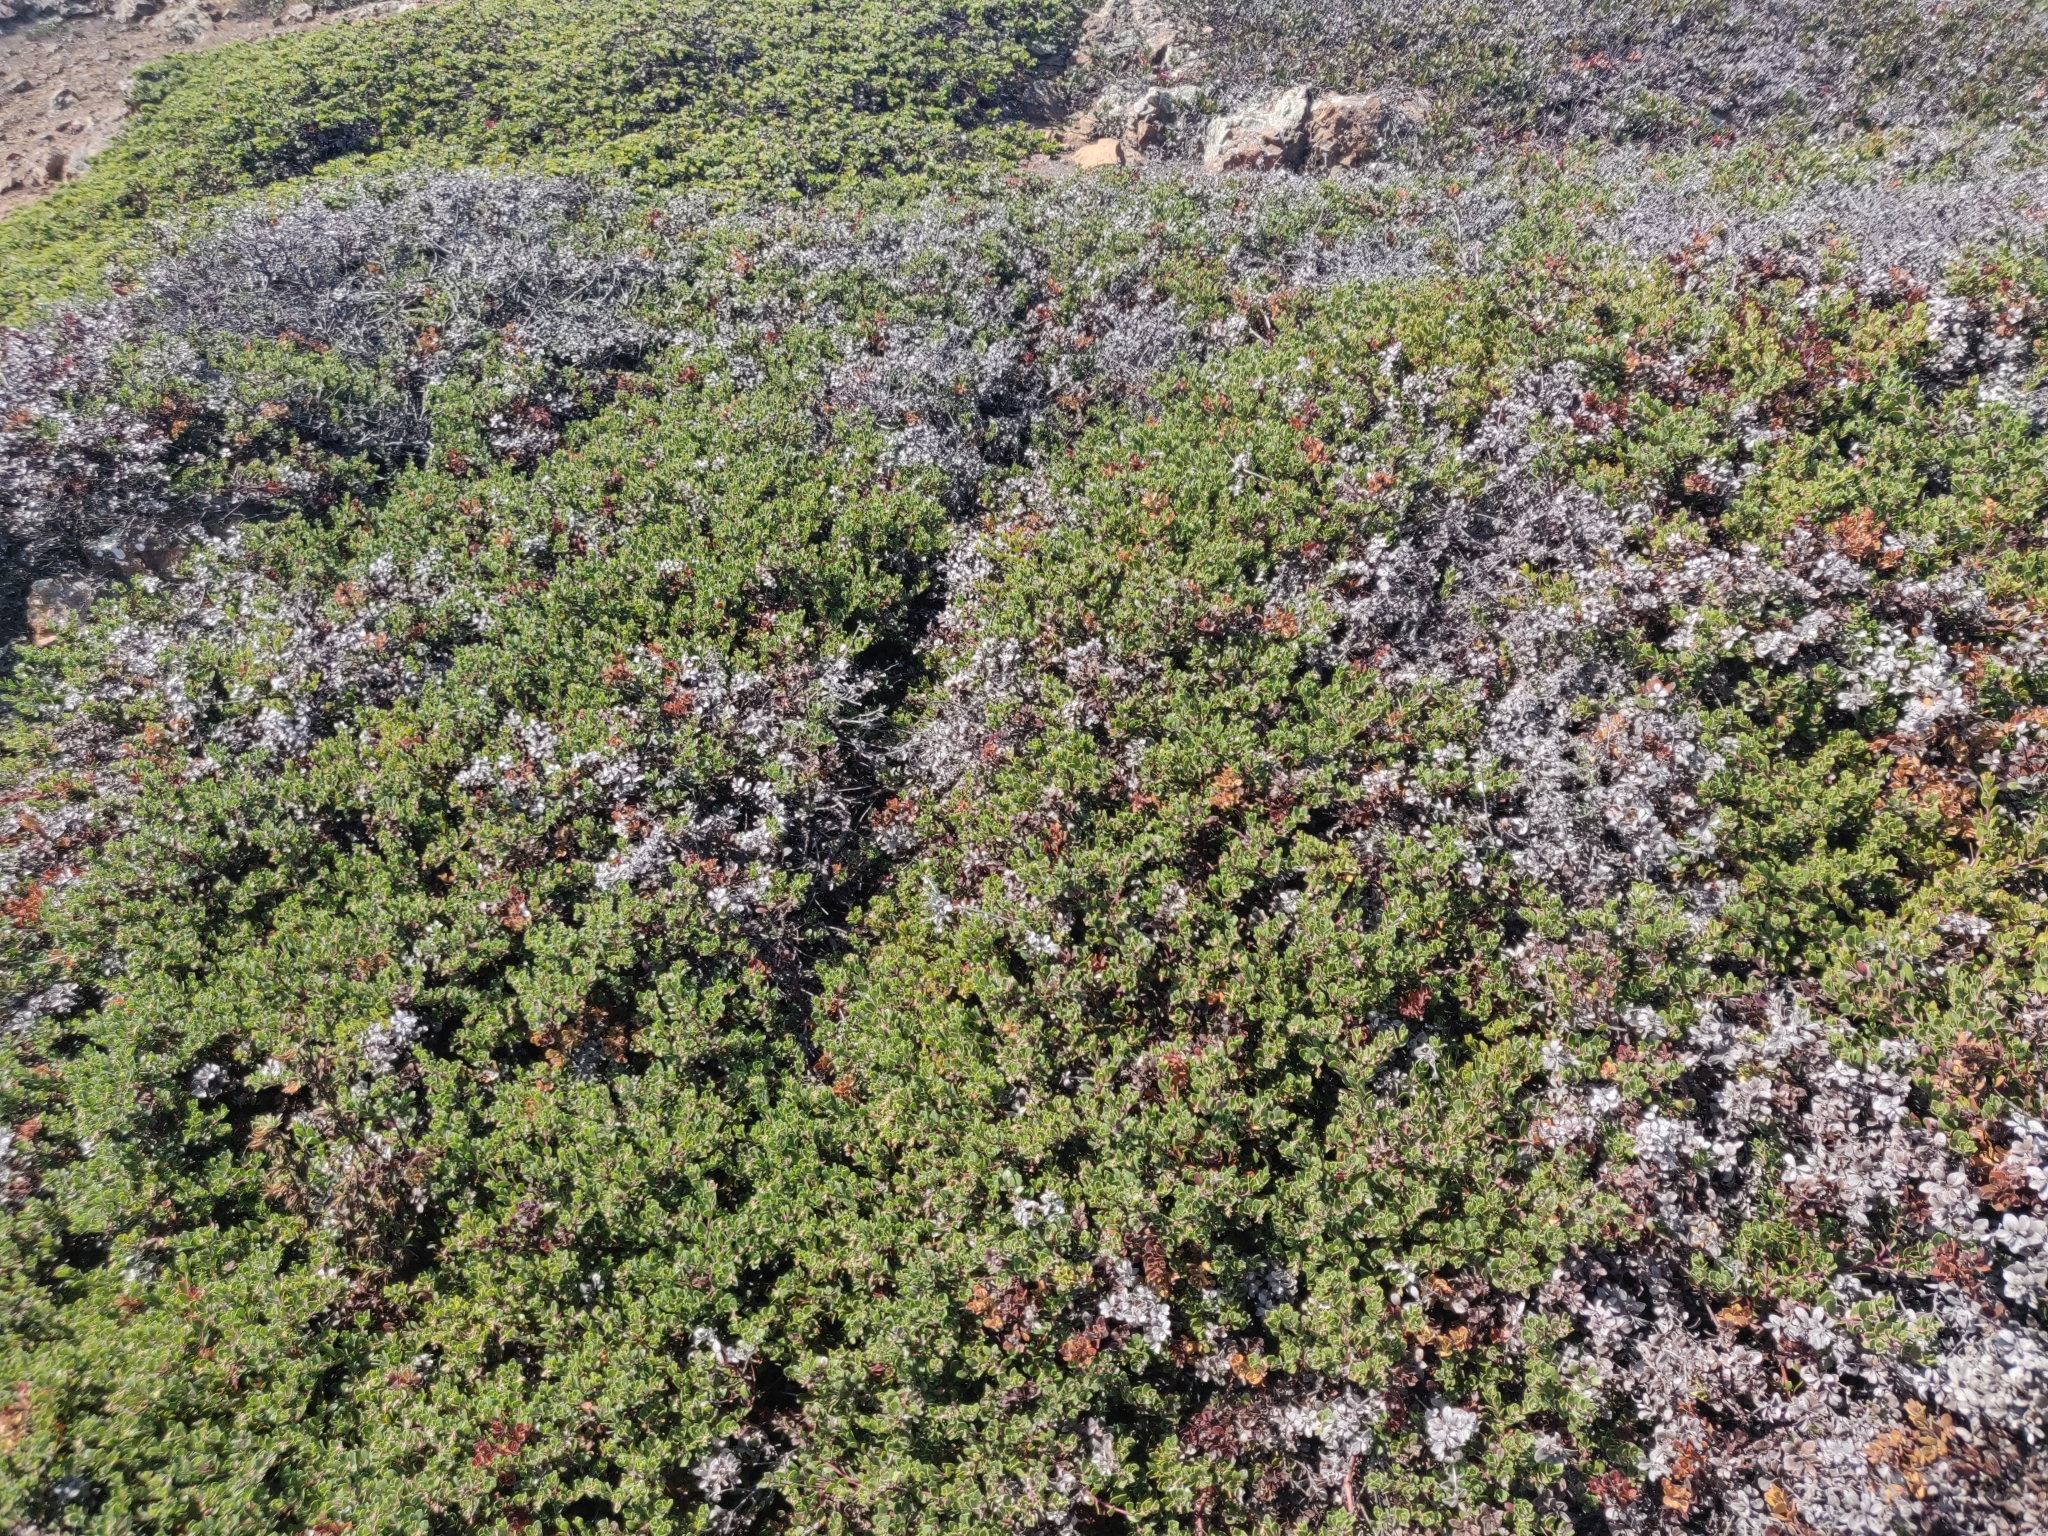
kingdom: Plantae
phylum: Tracheophyta
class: Magnoliopsida
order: Ericales
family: Ericaceae
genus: Arctostaphylos
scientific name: Arctostaphylos pacifica
